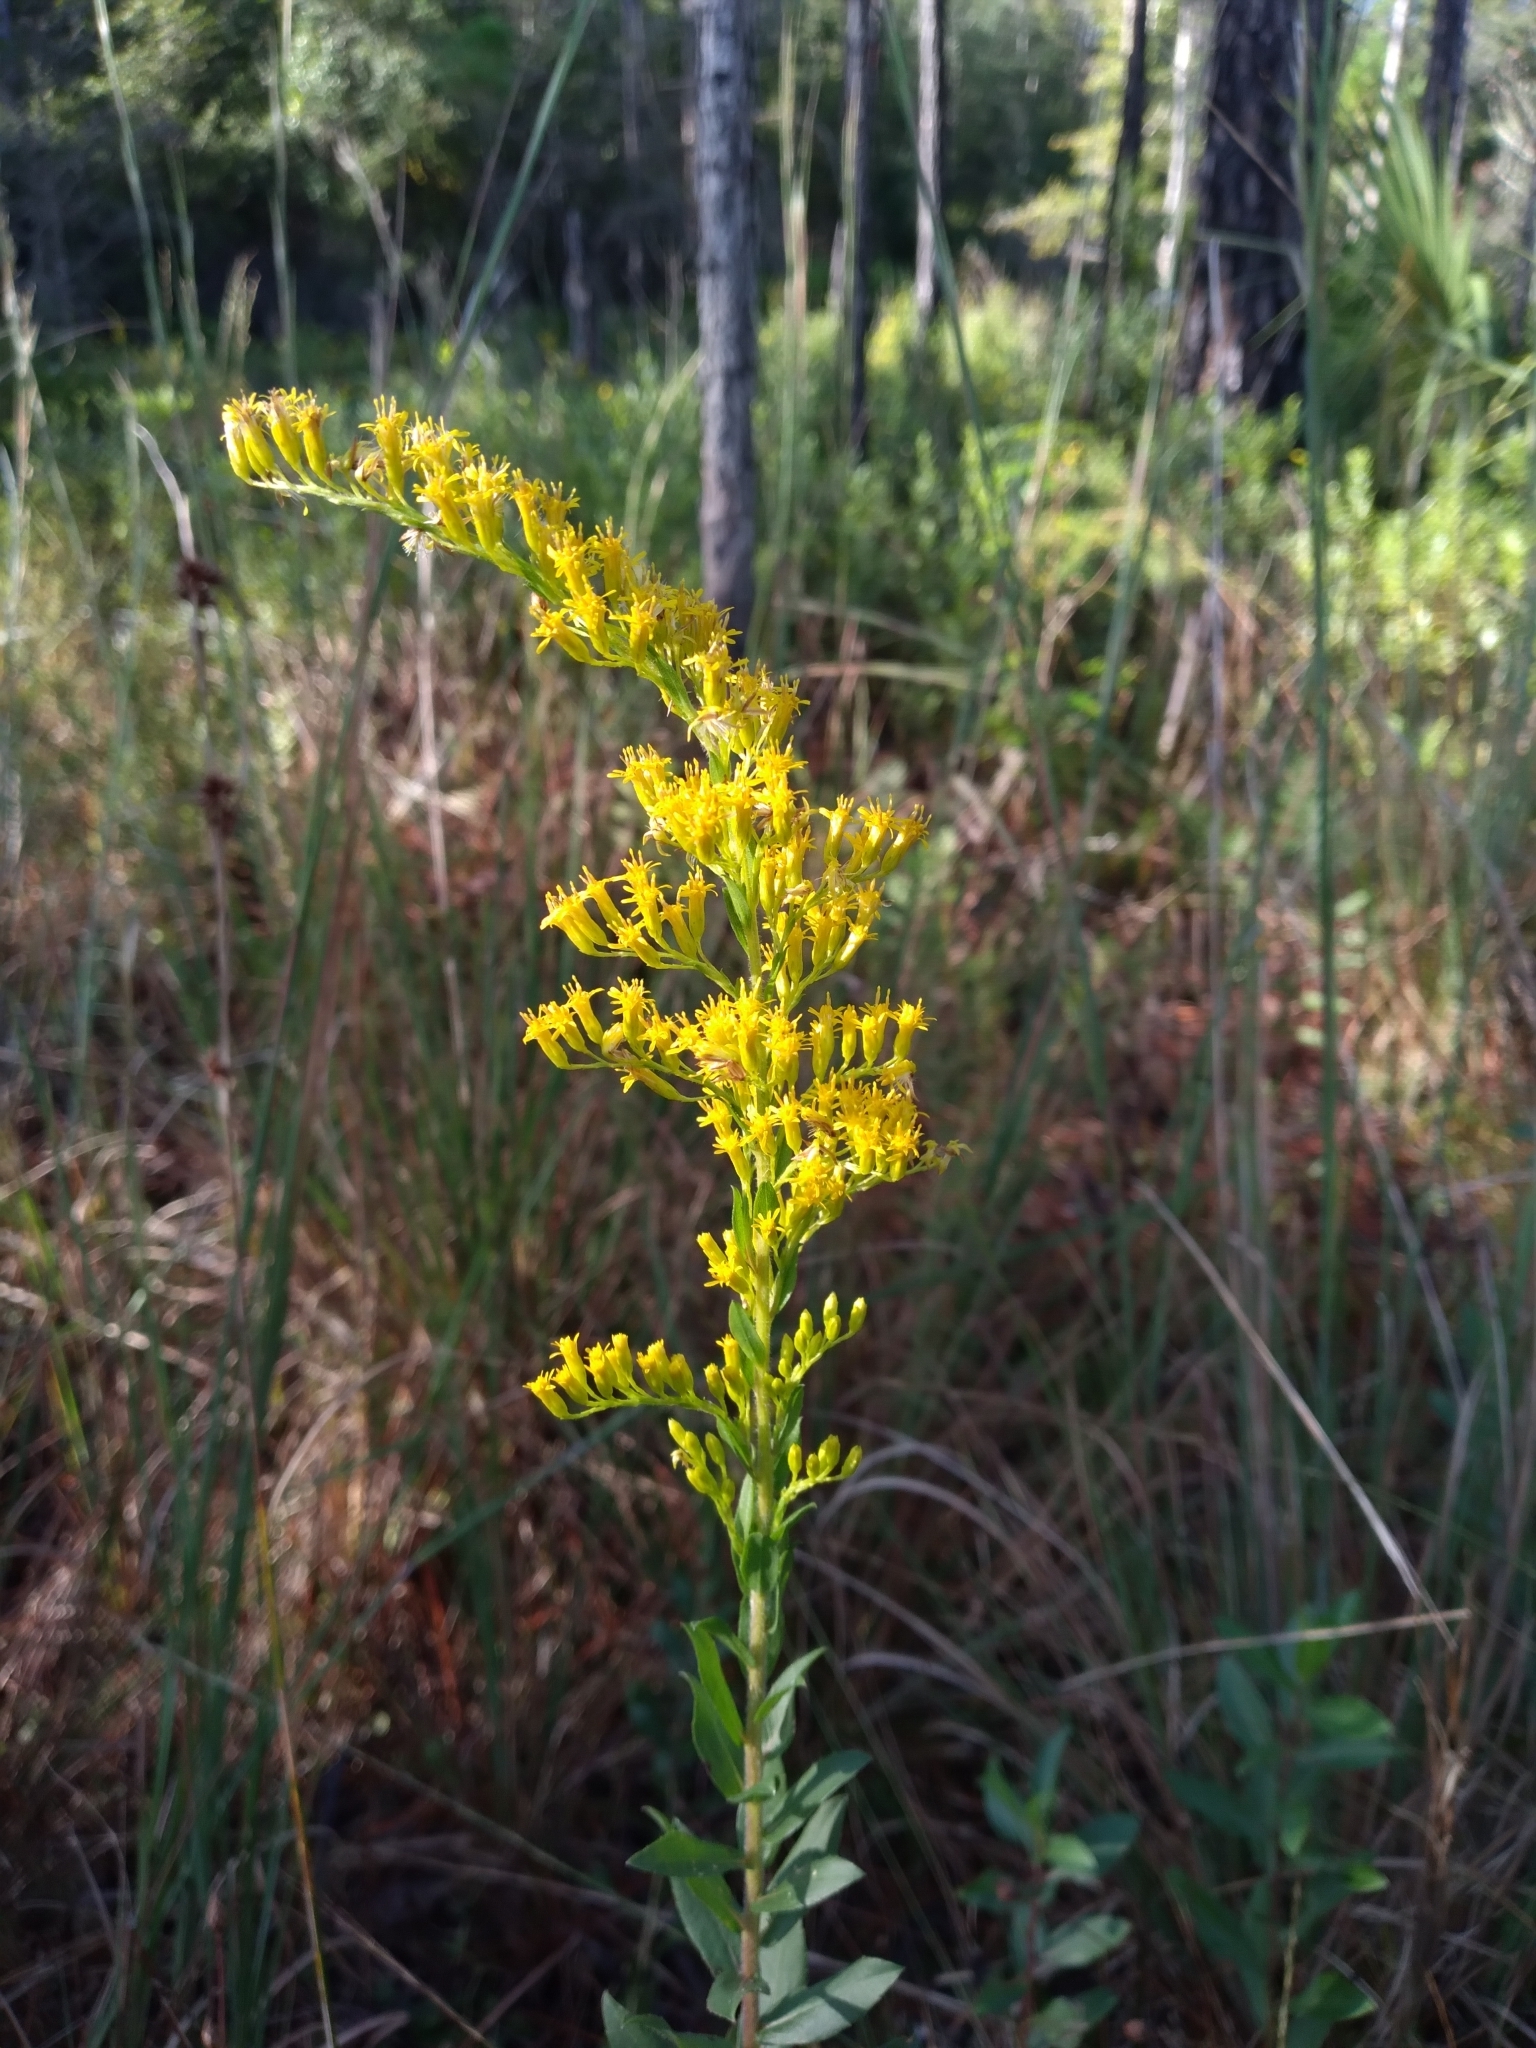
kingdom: Plantae
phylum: Tracheophyta
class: Magnoliopsida
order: Asterales
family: Asteraceae
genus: Solidago
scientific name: Solidago fistulosa
